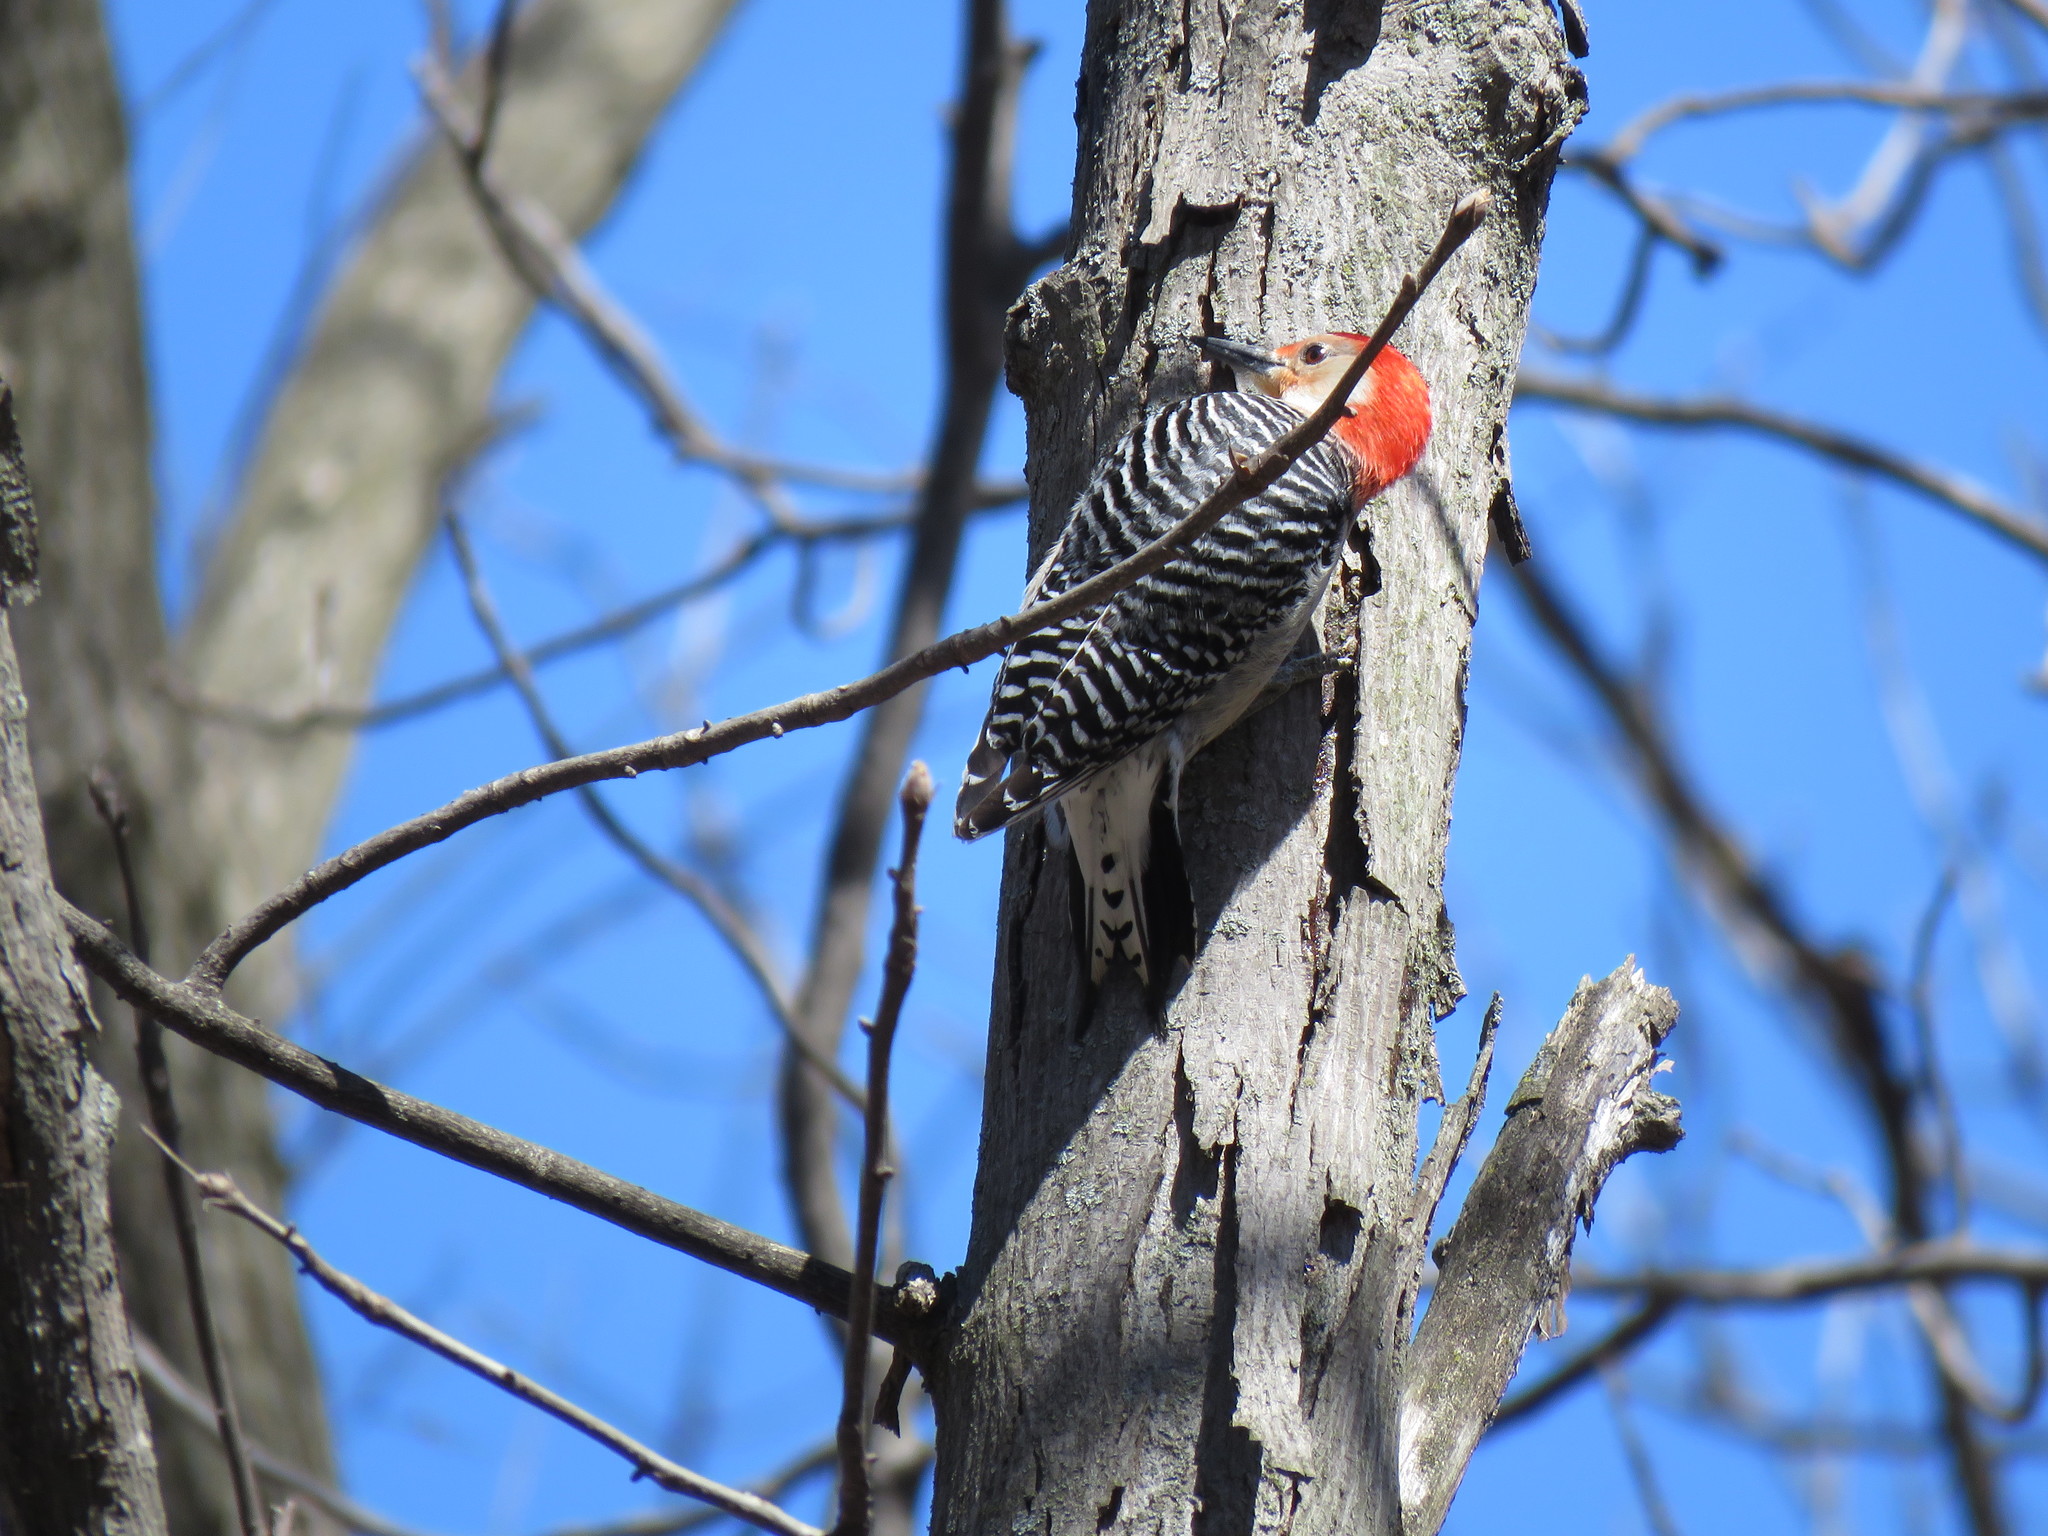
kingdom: Animalia
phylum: Chordata
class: Aves
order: Piciformes
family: Picidae
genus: Melanerpes
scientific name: Melanerpes carolinus
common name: Red-bellied woodpecker
